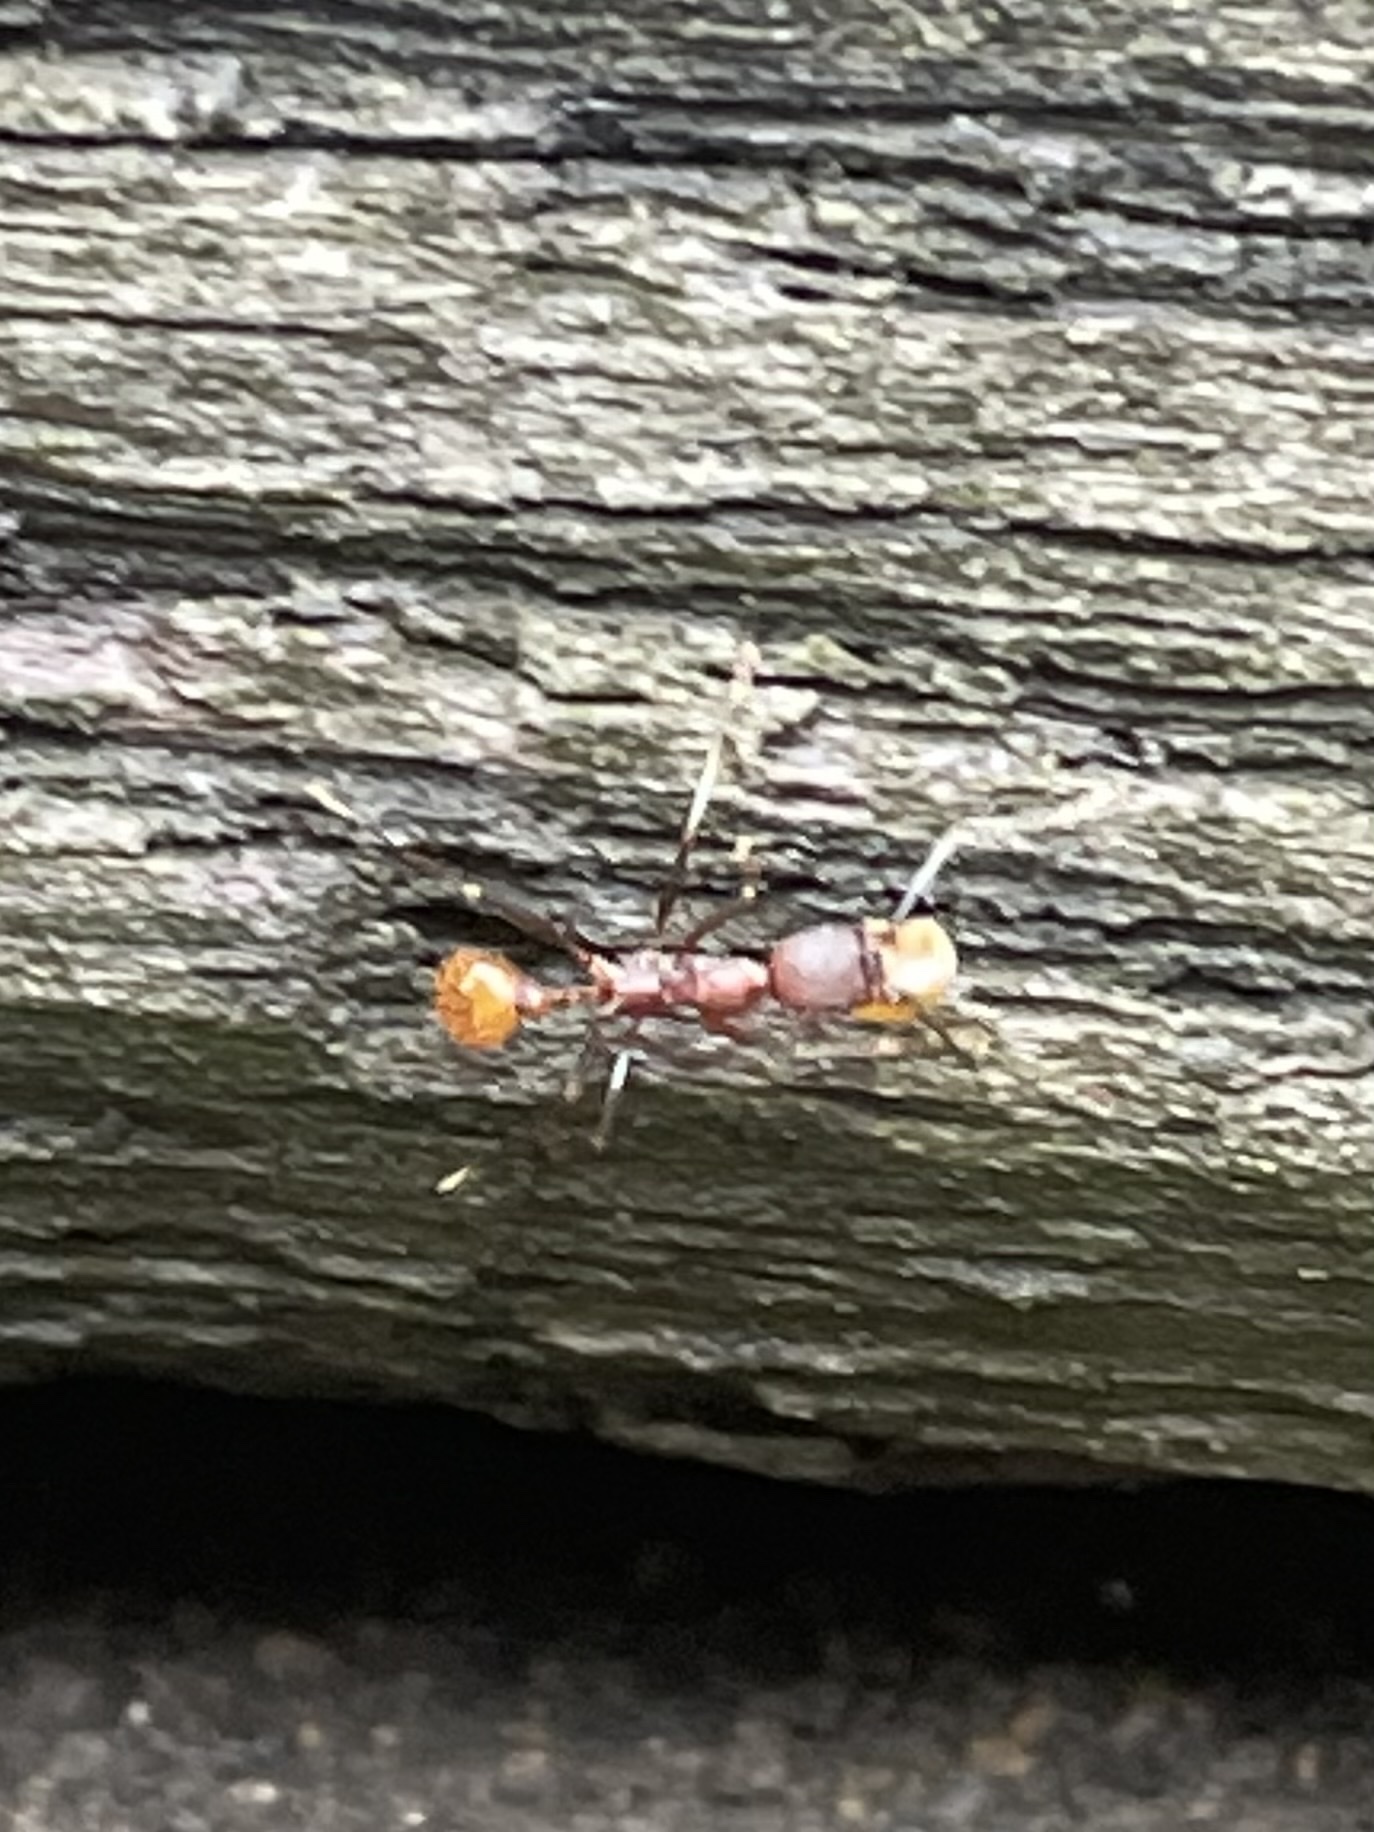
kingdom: Animalia
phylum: Arthropoda
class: Insecta
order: Hymenoptera
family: Formicidae
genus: Aphaenogaster
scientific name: Aphaenogaster lamellidens
